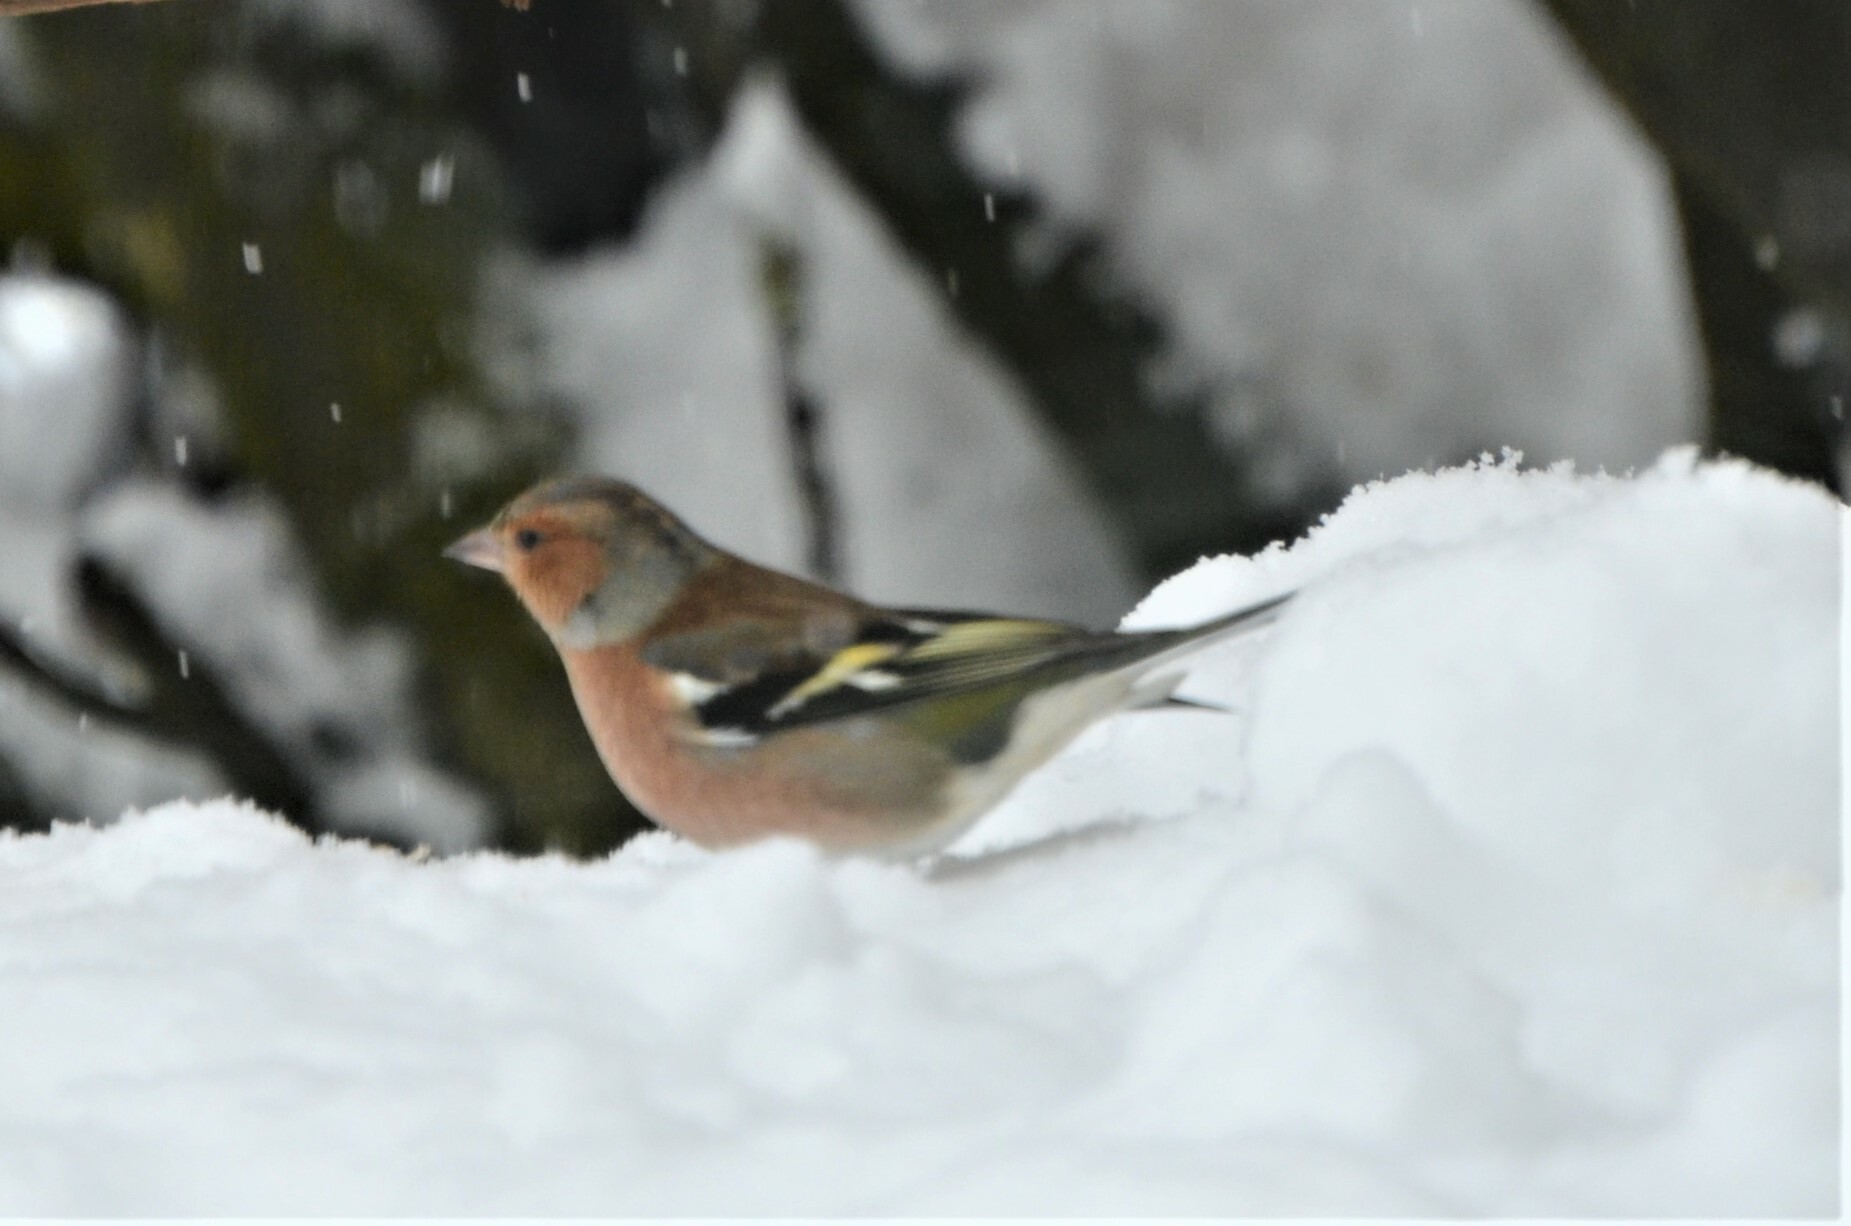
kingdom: Animalia
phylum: Chordata
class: Aves
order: Passeriformes
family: Fringillidae
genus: Fringilla
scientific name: Fringilla coelebs
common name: Common chaffinch
